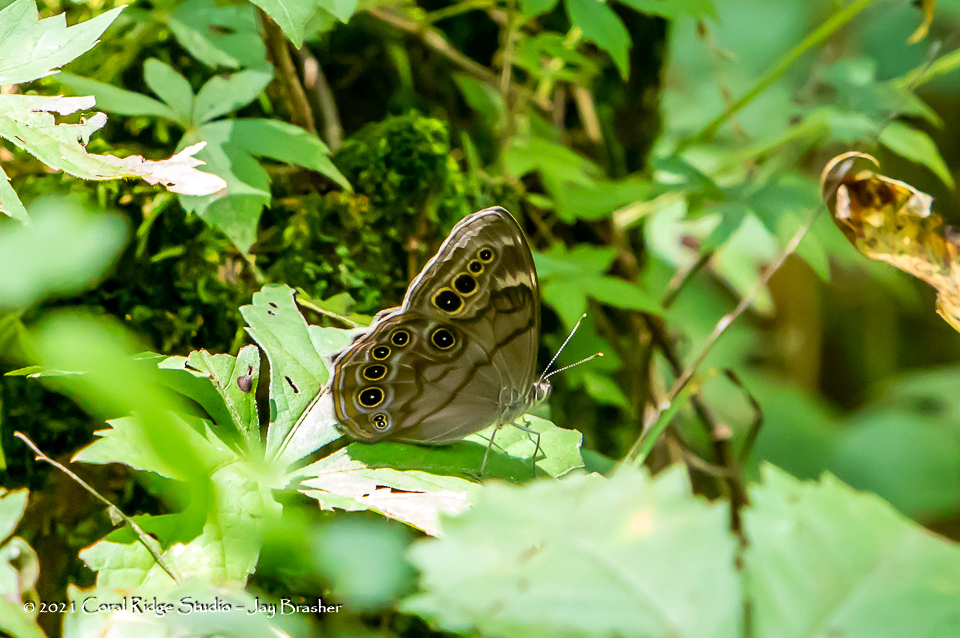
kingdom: Animalia
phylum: Arthropoda
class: Insecta
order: Lepidoptera
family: Nymphalidae
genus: Lethe
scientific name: Lethe anthedon
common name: Northern pearly-eye
